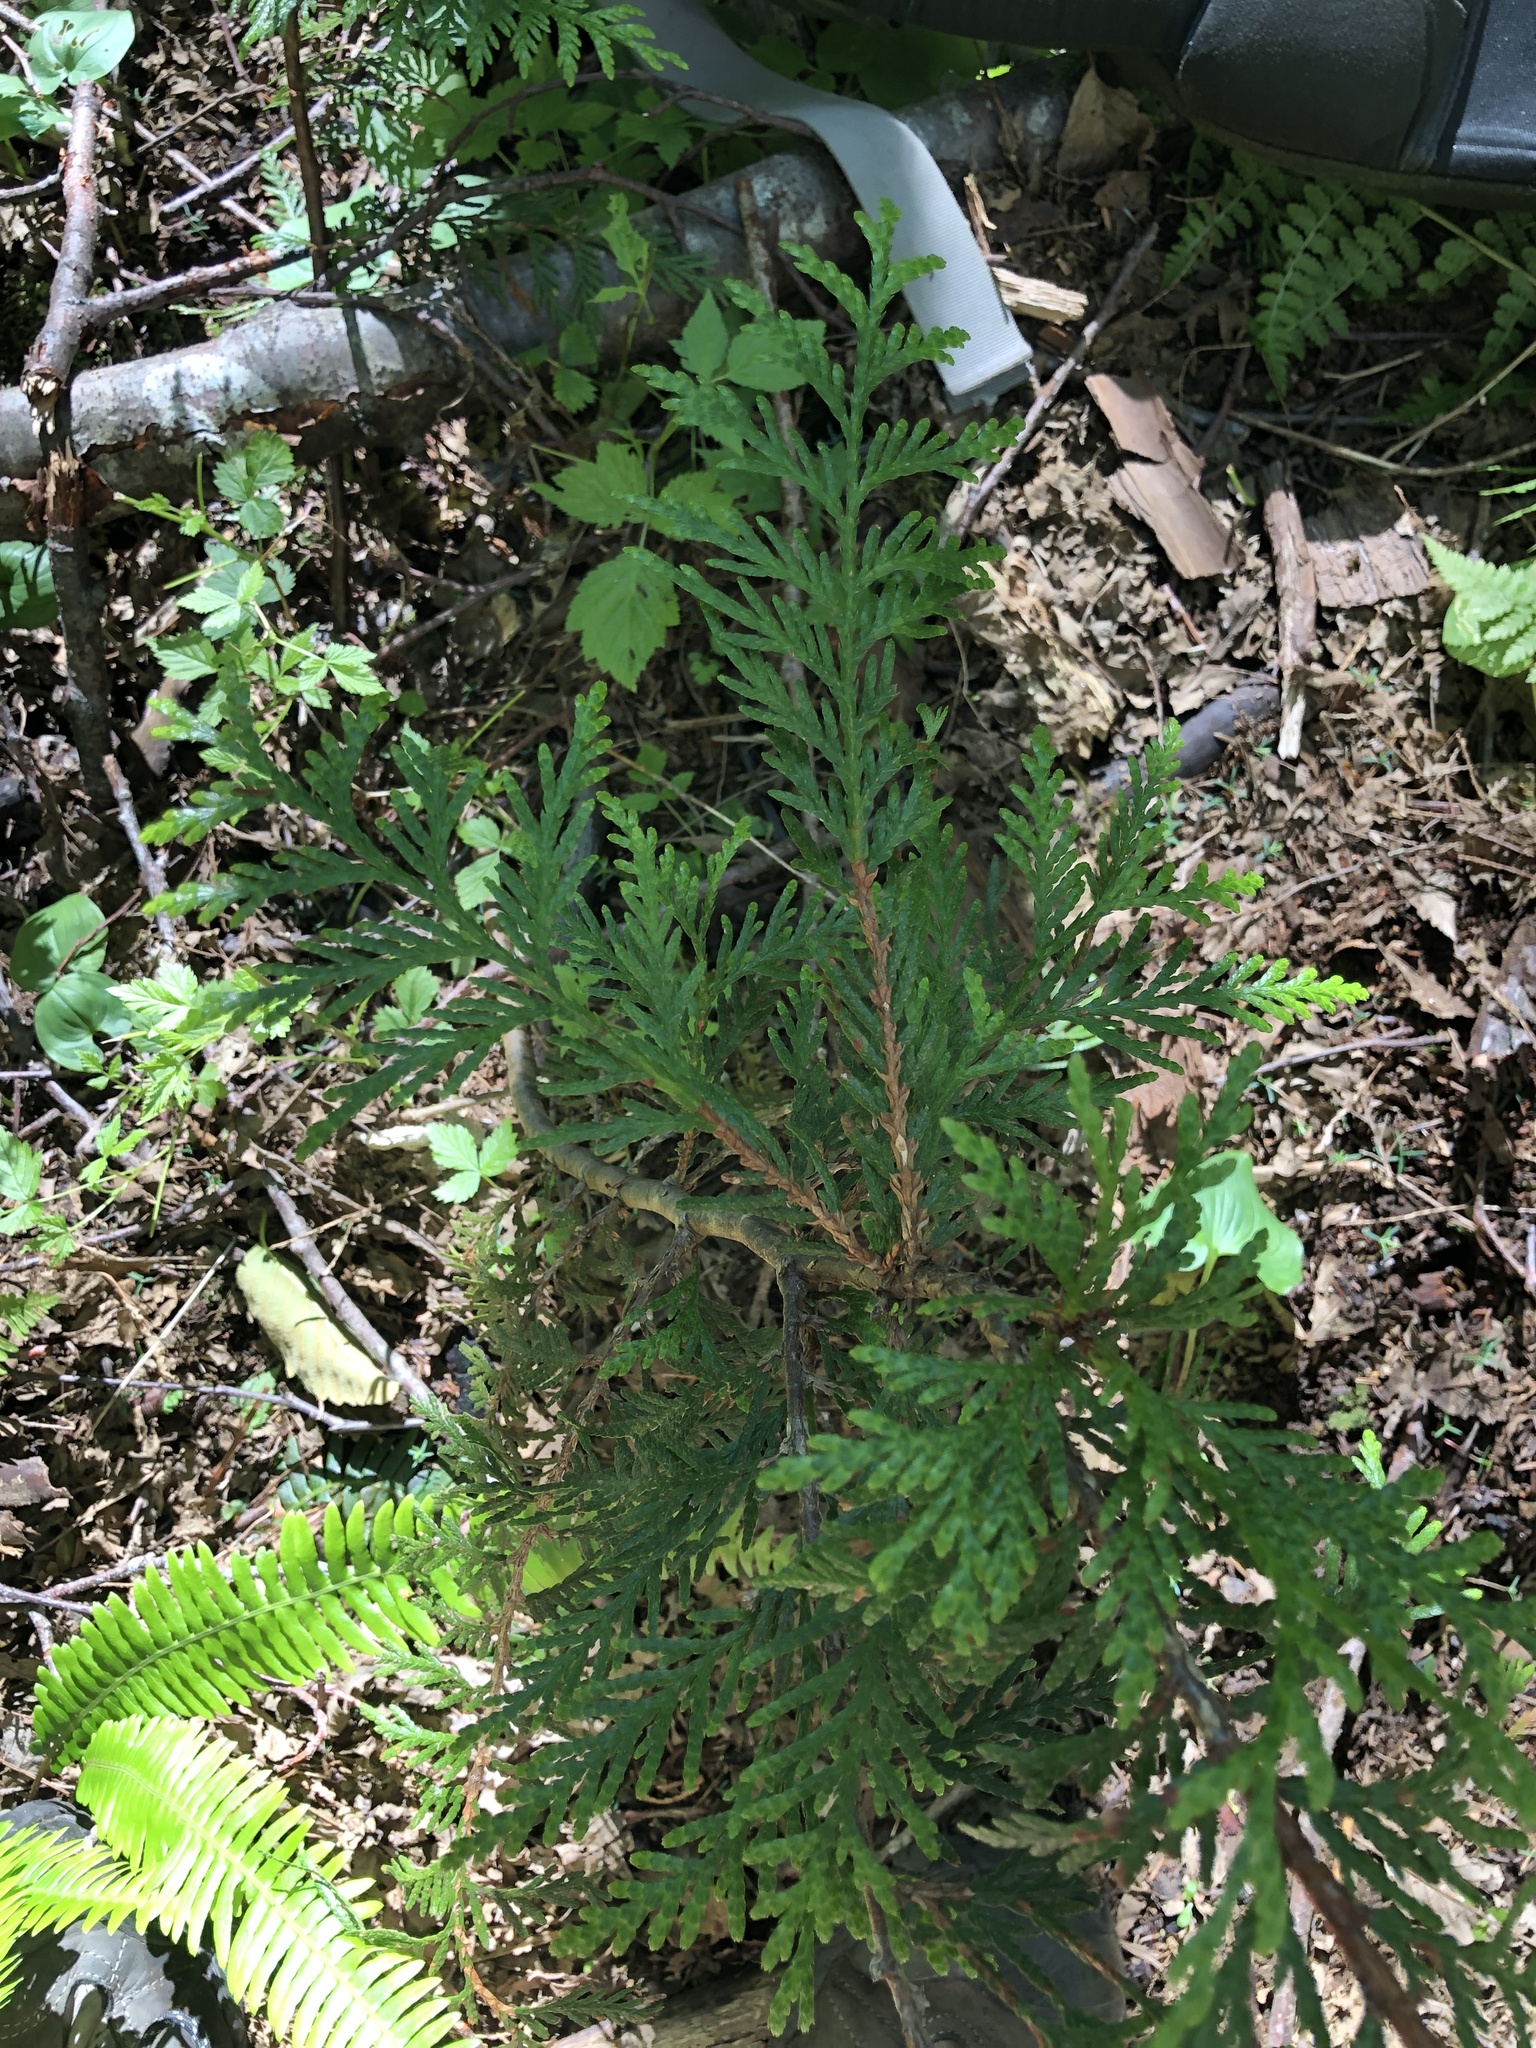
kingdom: Plantae
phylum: Tracheophyta
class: Pinopsida
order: Pinales
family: Cupressaceae
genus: Thuja
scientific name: Thuja plicata
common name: Western red-cedar
